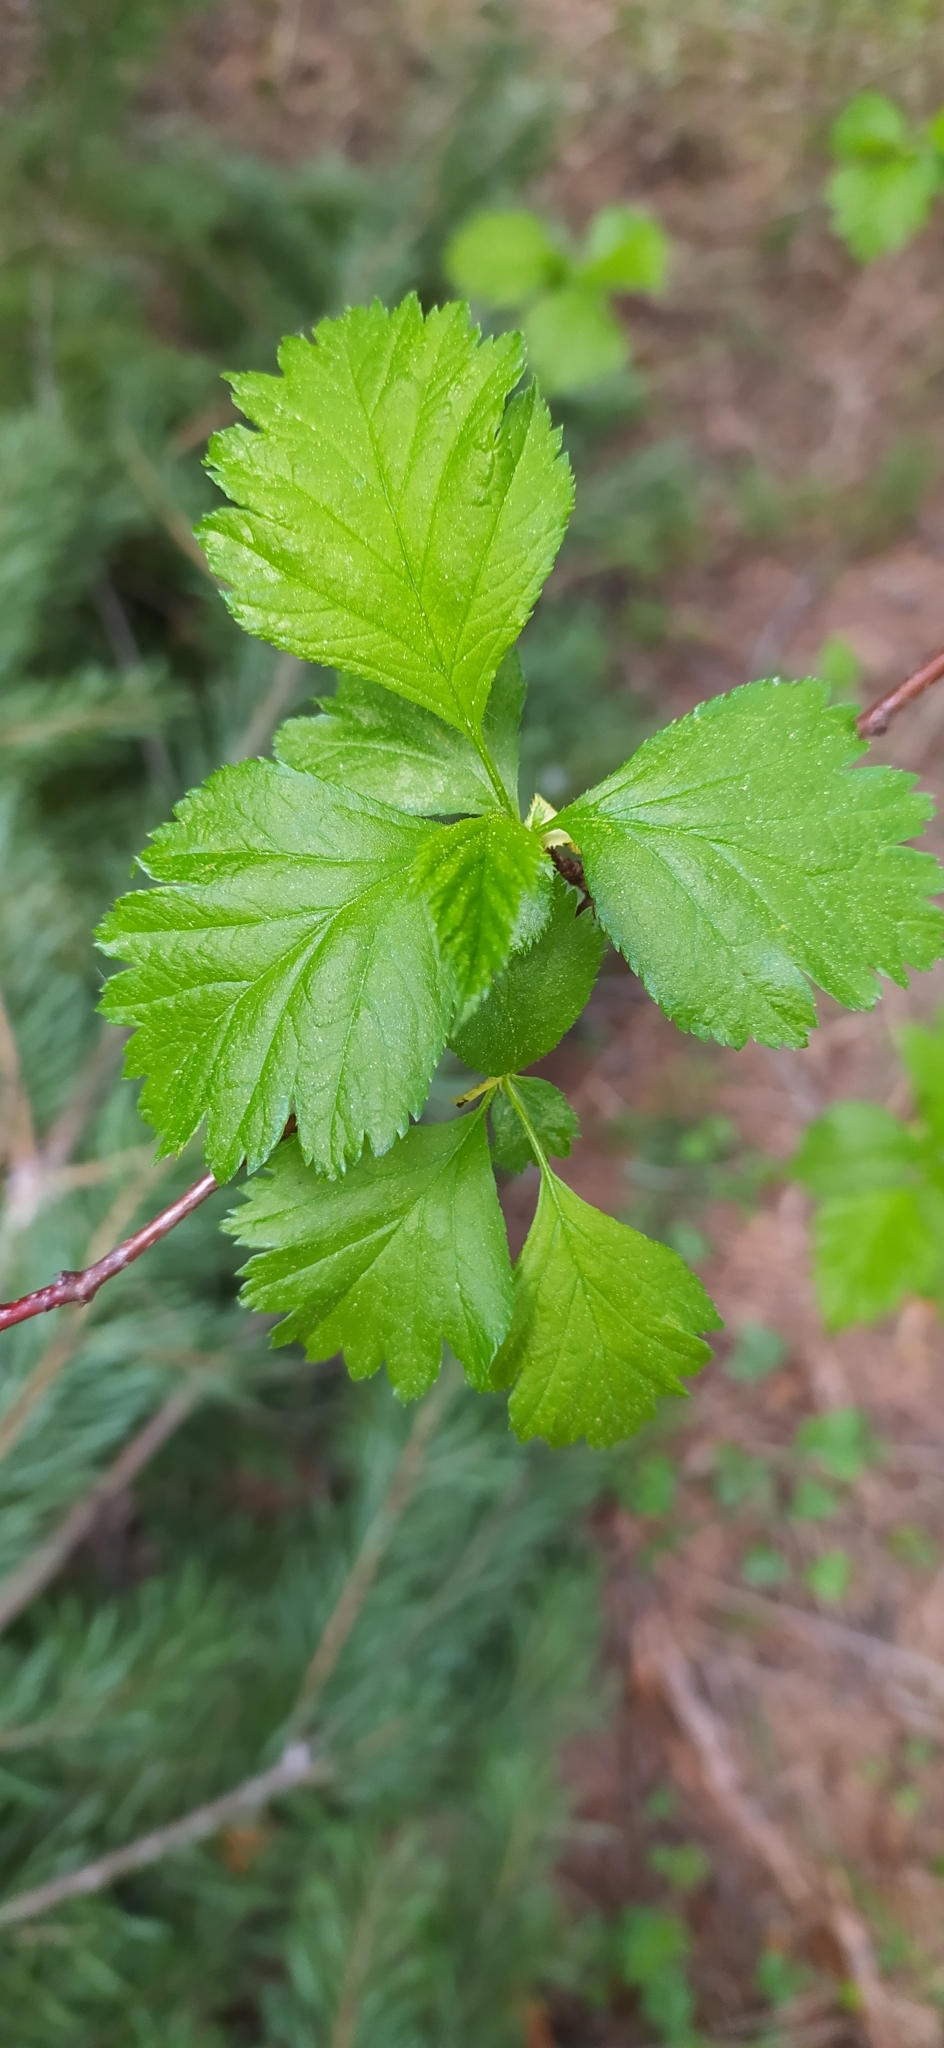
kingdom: Plantae
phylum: Tracheophyta
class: Magnoliopsida
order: Rosales
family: Rosaceae
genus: Crataegus
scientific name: Crataegus sanguinea
